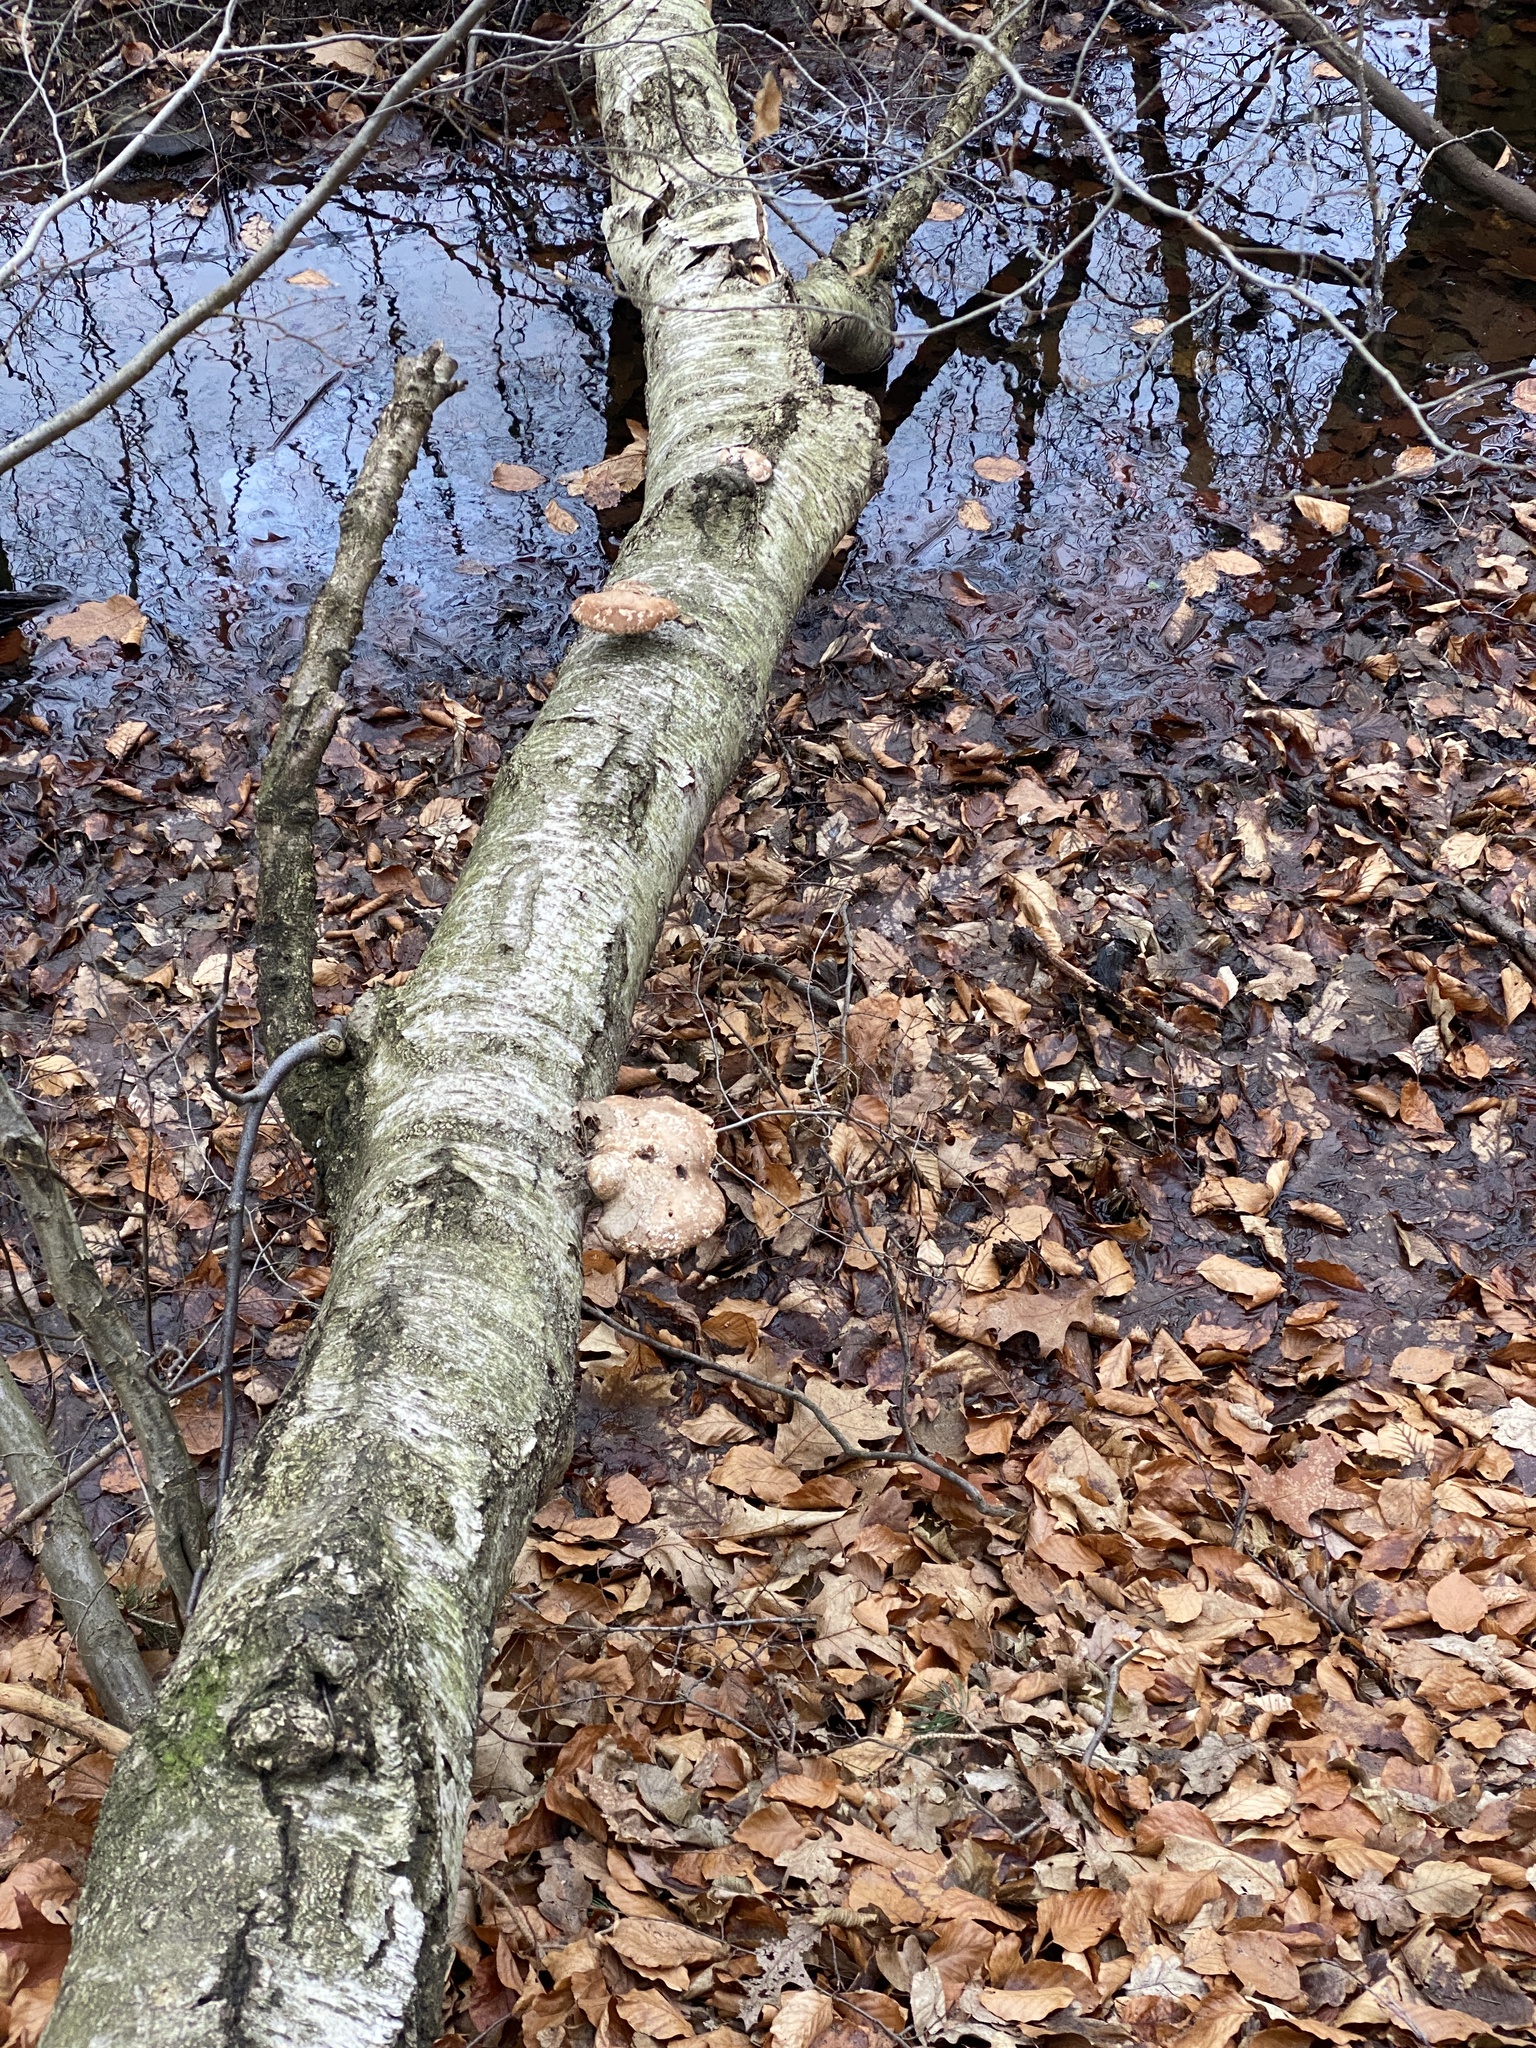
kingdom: Fungi
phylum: Basidiomycota
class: Agaricomycetes
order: Polyporales
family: Fomitopsidaceae
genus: Fomitopsis
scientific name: Fomitopsis betulina
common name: Birch polypore
